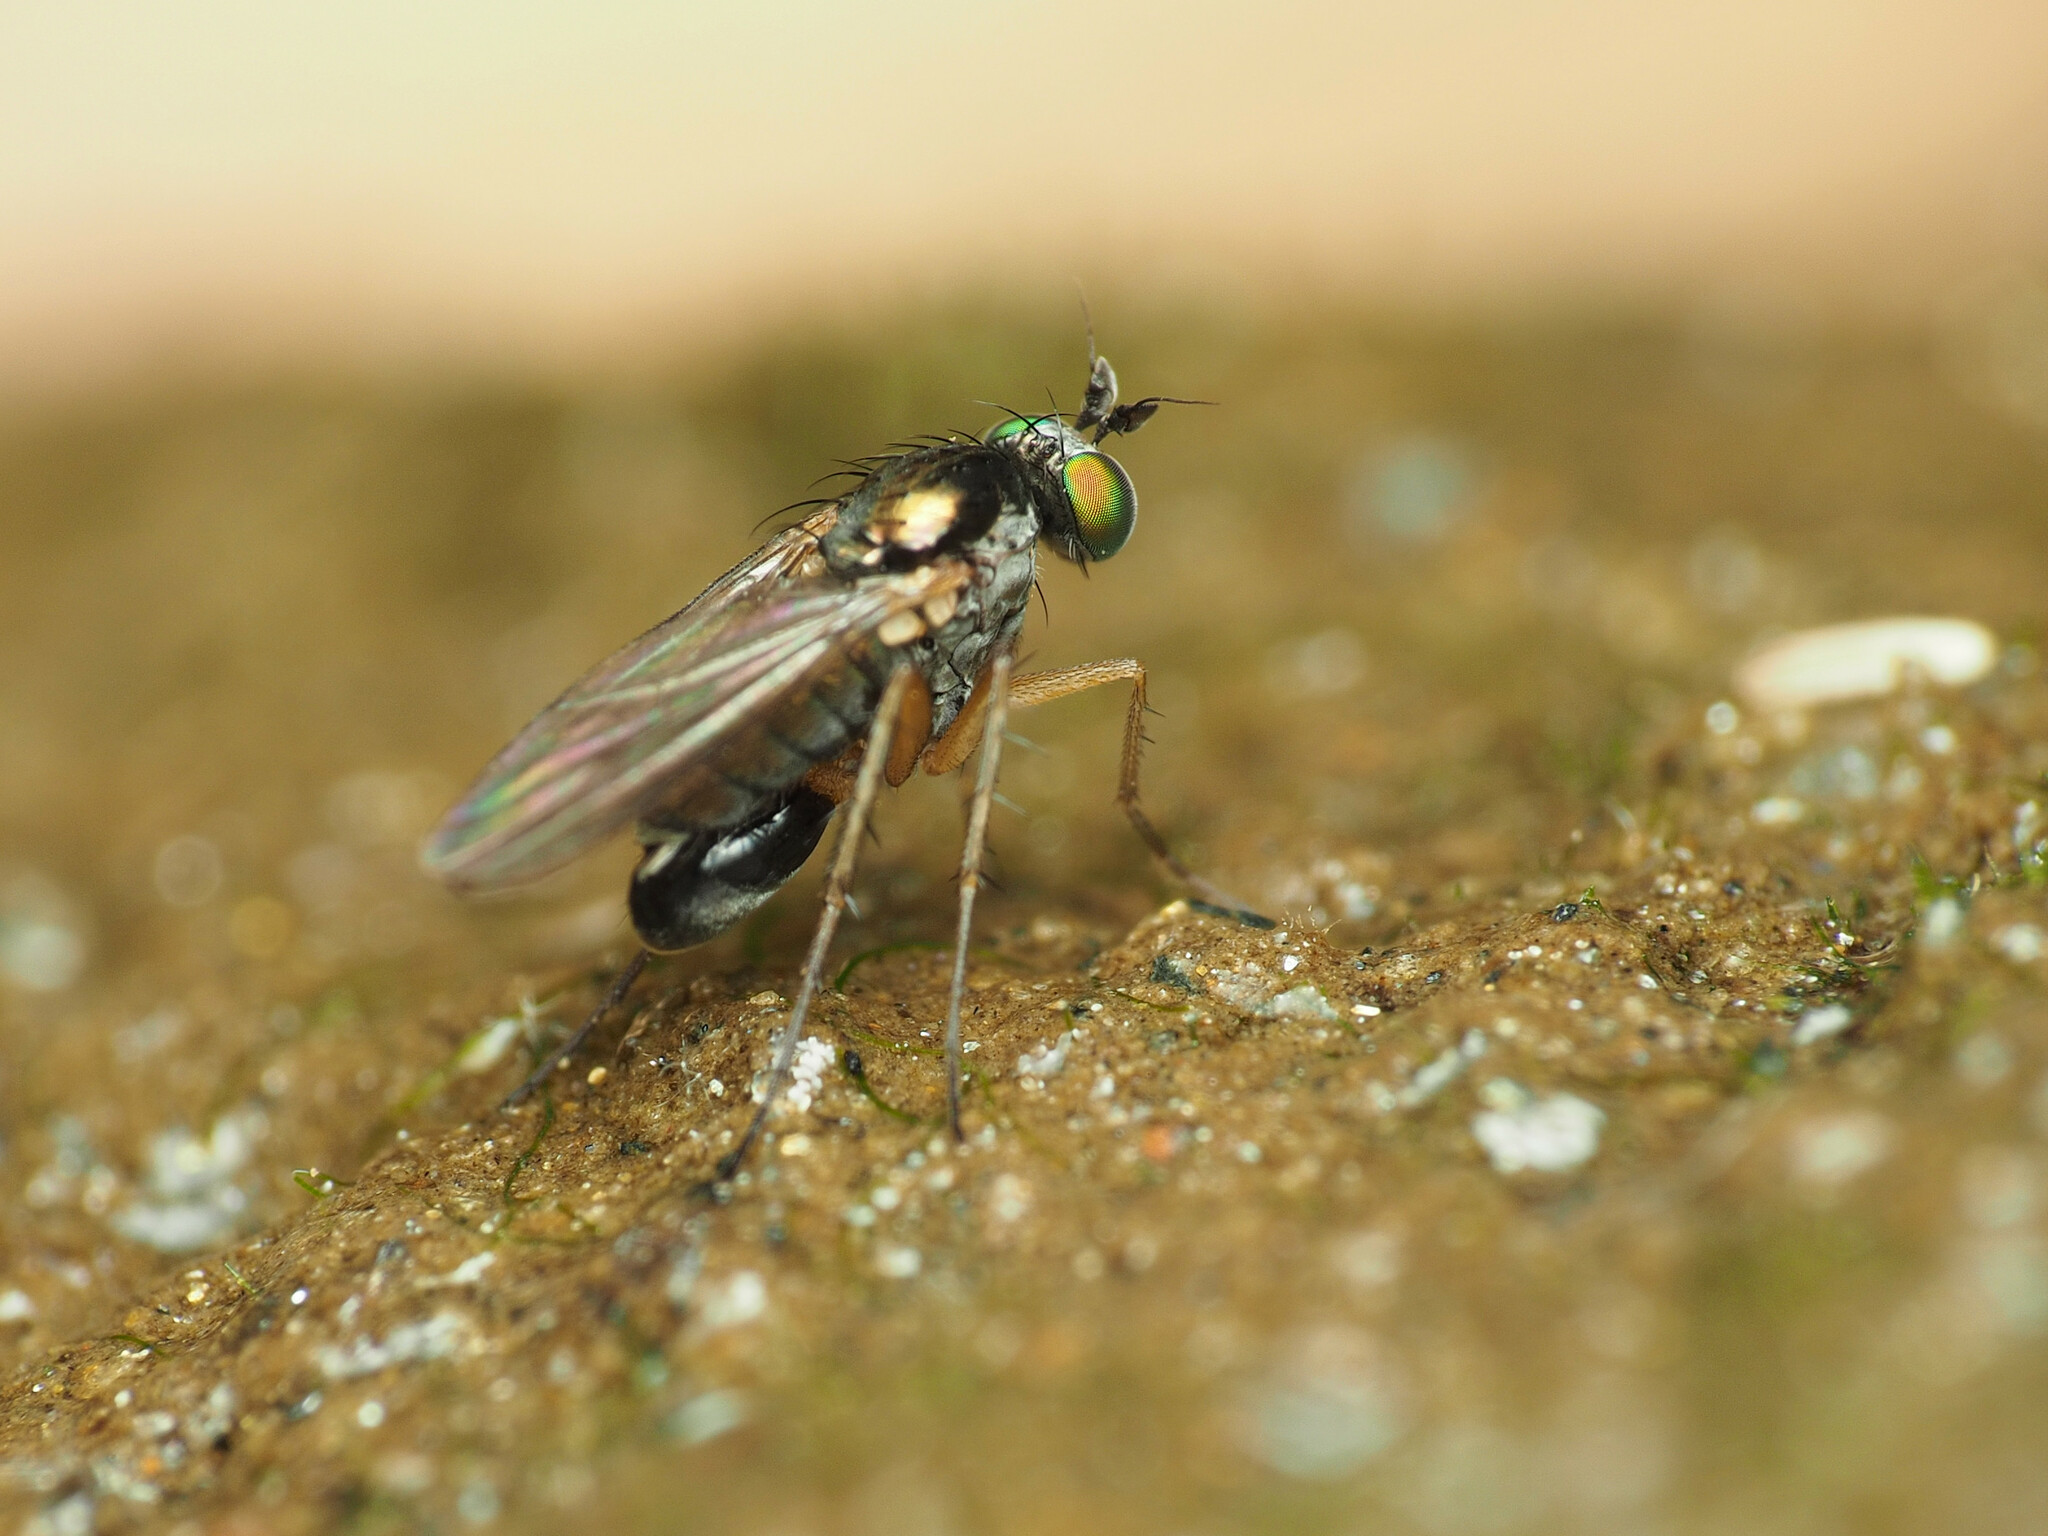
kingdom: Animalia
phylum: Arthropoda
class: Insecta
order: Diptera
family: Dolichopodidae
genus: Gymnopternus
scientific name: Gymnopternus meniscus
